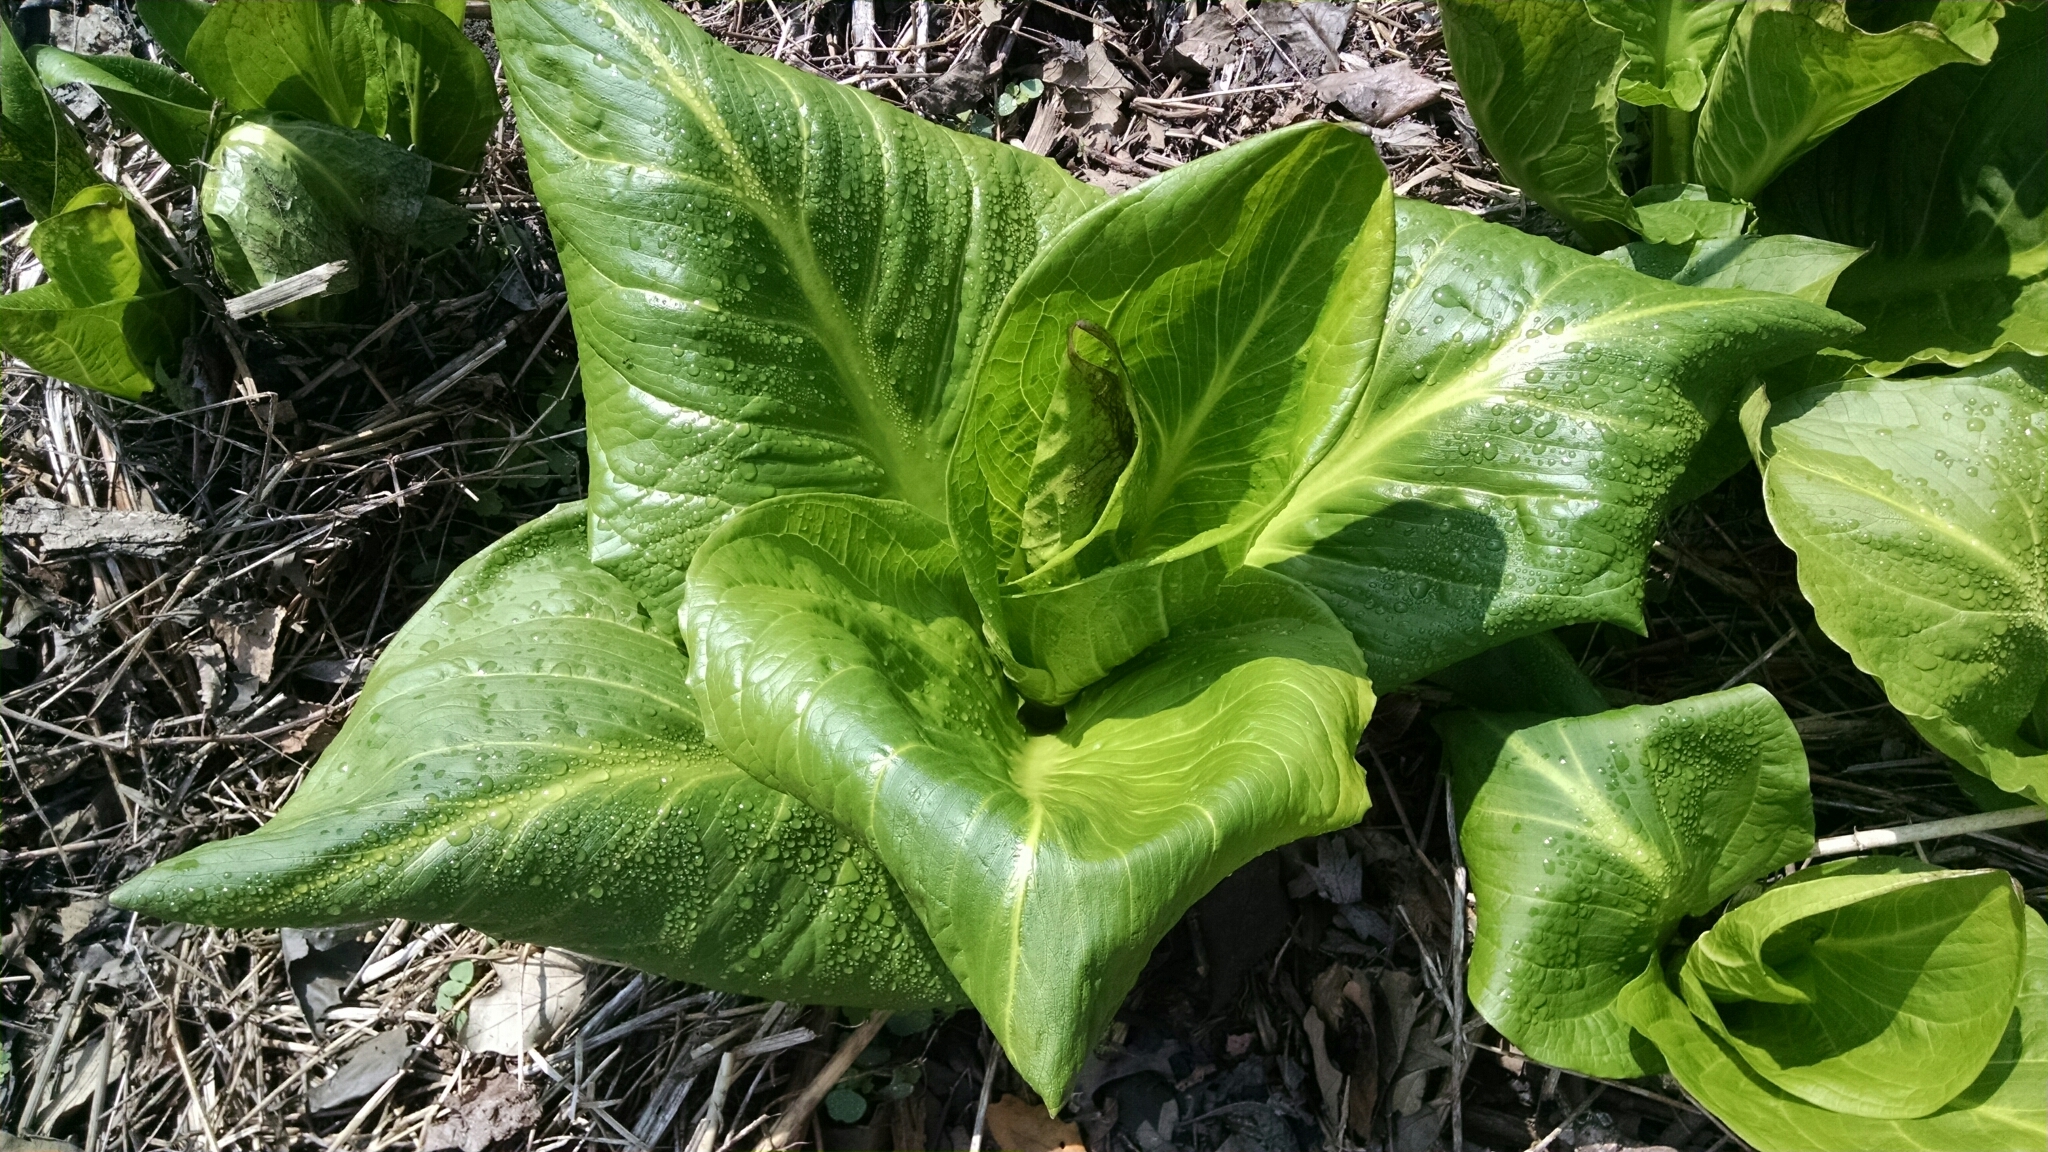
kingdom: Plantae
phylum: Tracheophyta
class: Liliopsida
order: Alismatales
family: Araceae
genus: Symplocarpus
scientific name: Symplocarpus foetidus
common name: Eastern skunk cabbage
